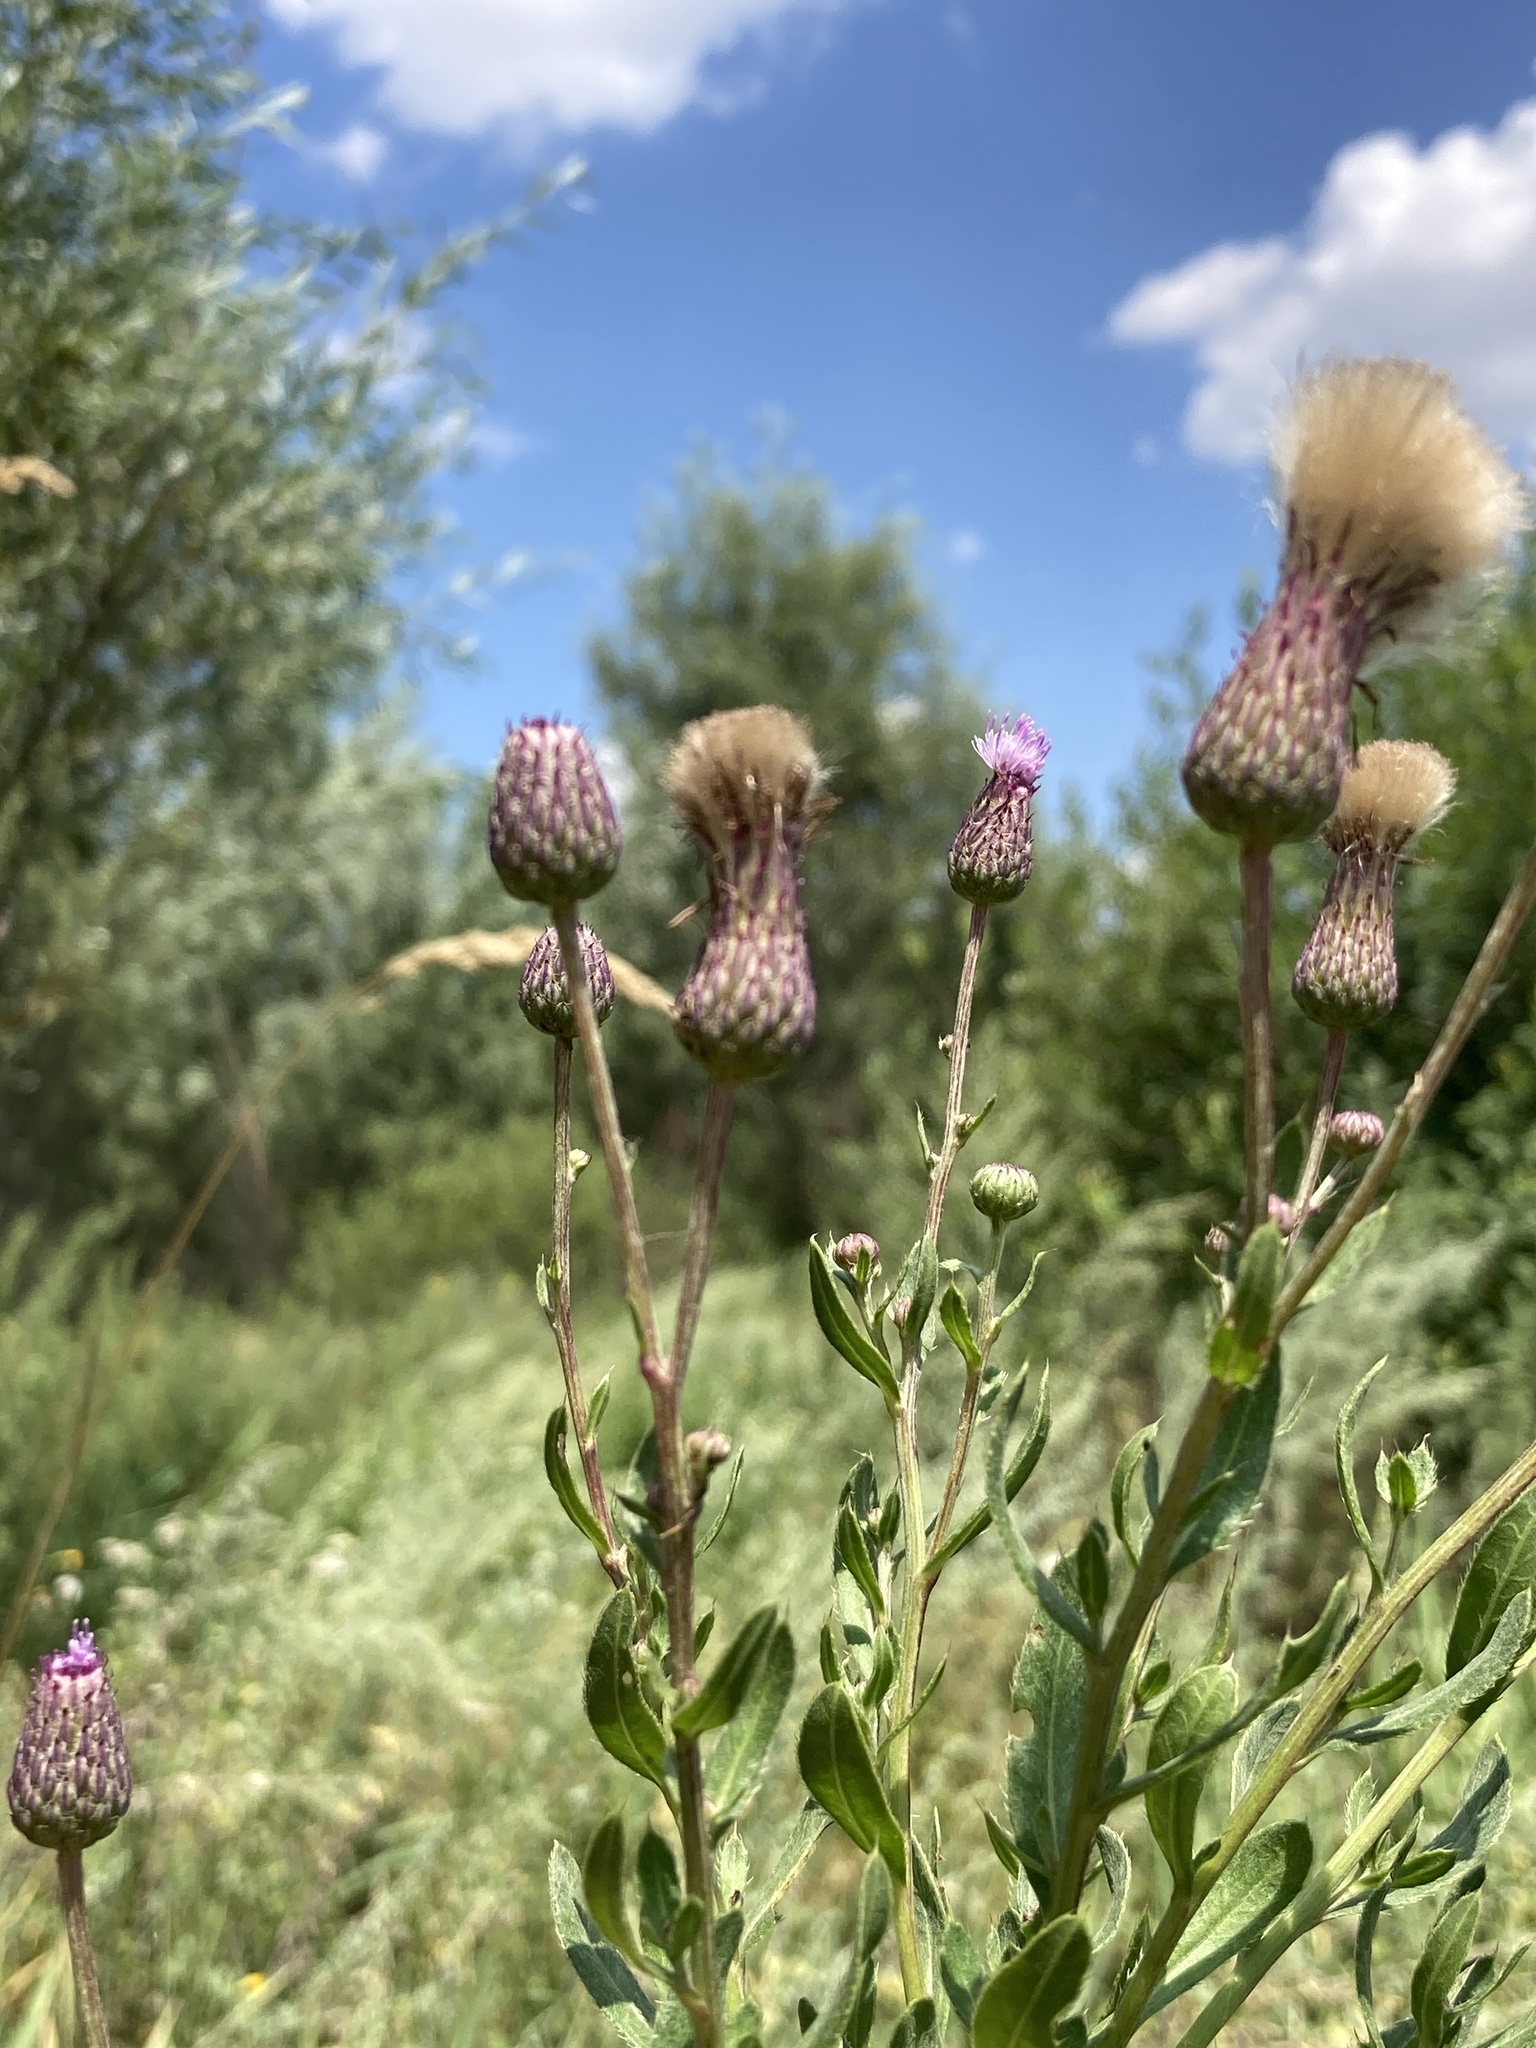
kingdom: Plantae
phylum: Tracheophyta
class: Magnoliopsida
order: Asterales
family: Asteraceae
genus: Cirsium
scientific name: Cirsium arvense
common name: Creeping thistle
